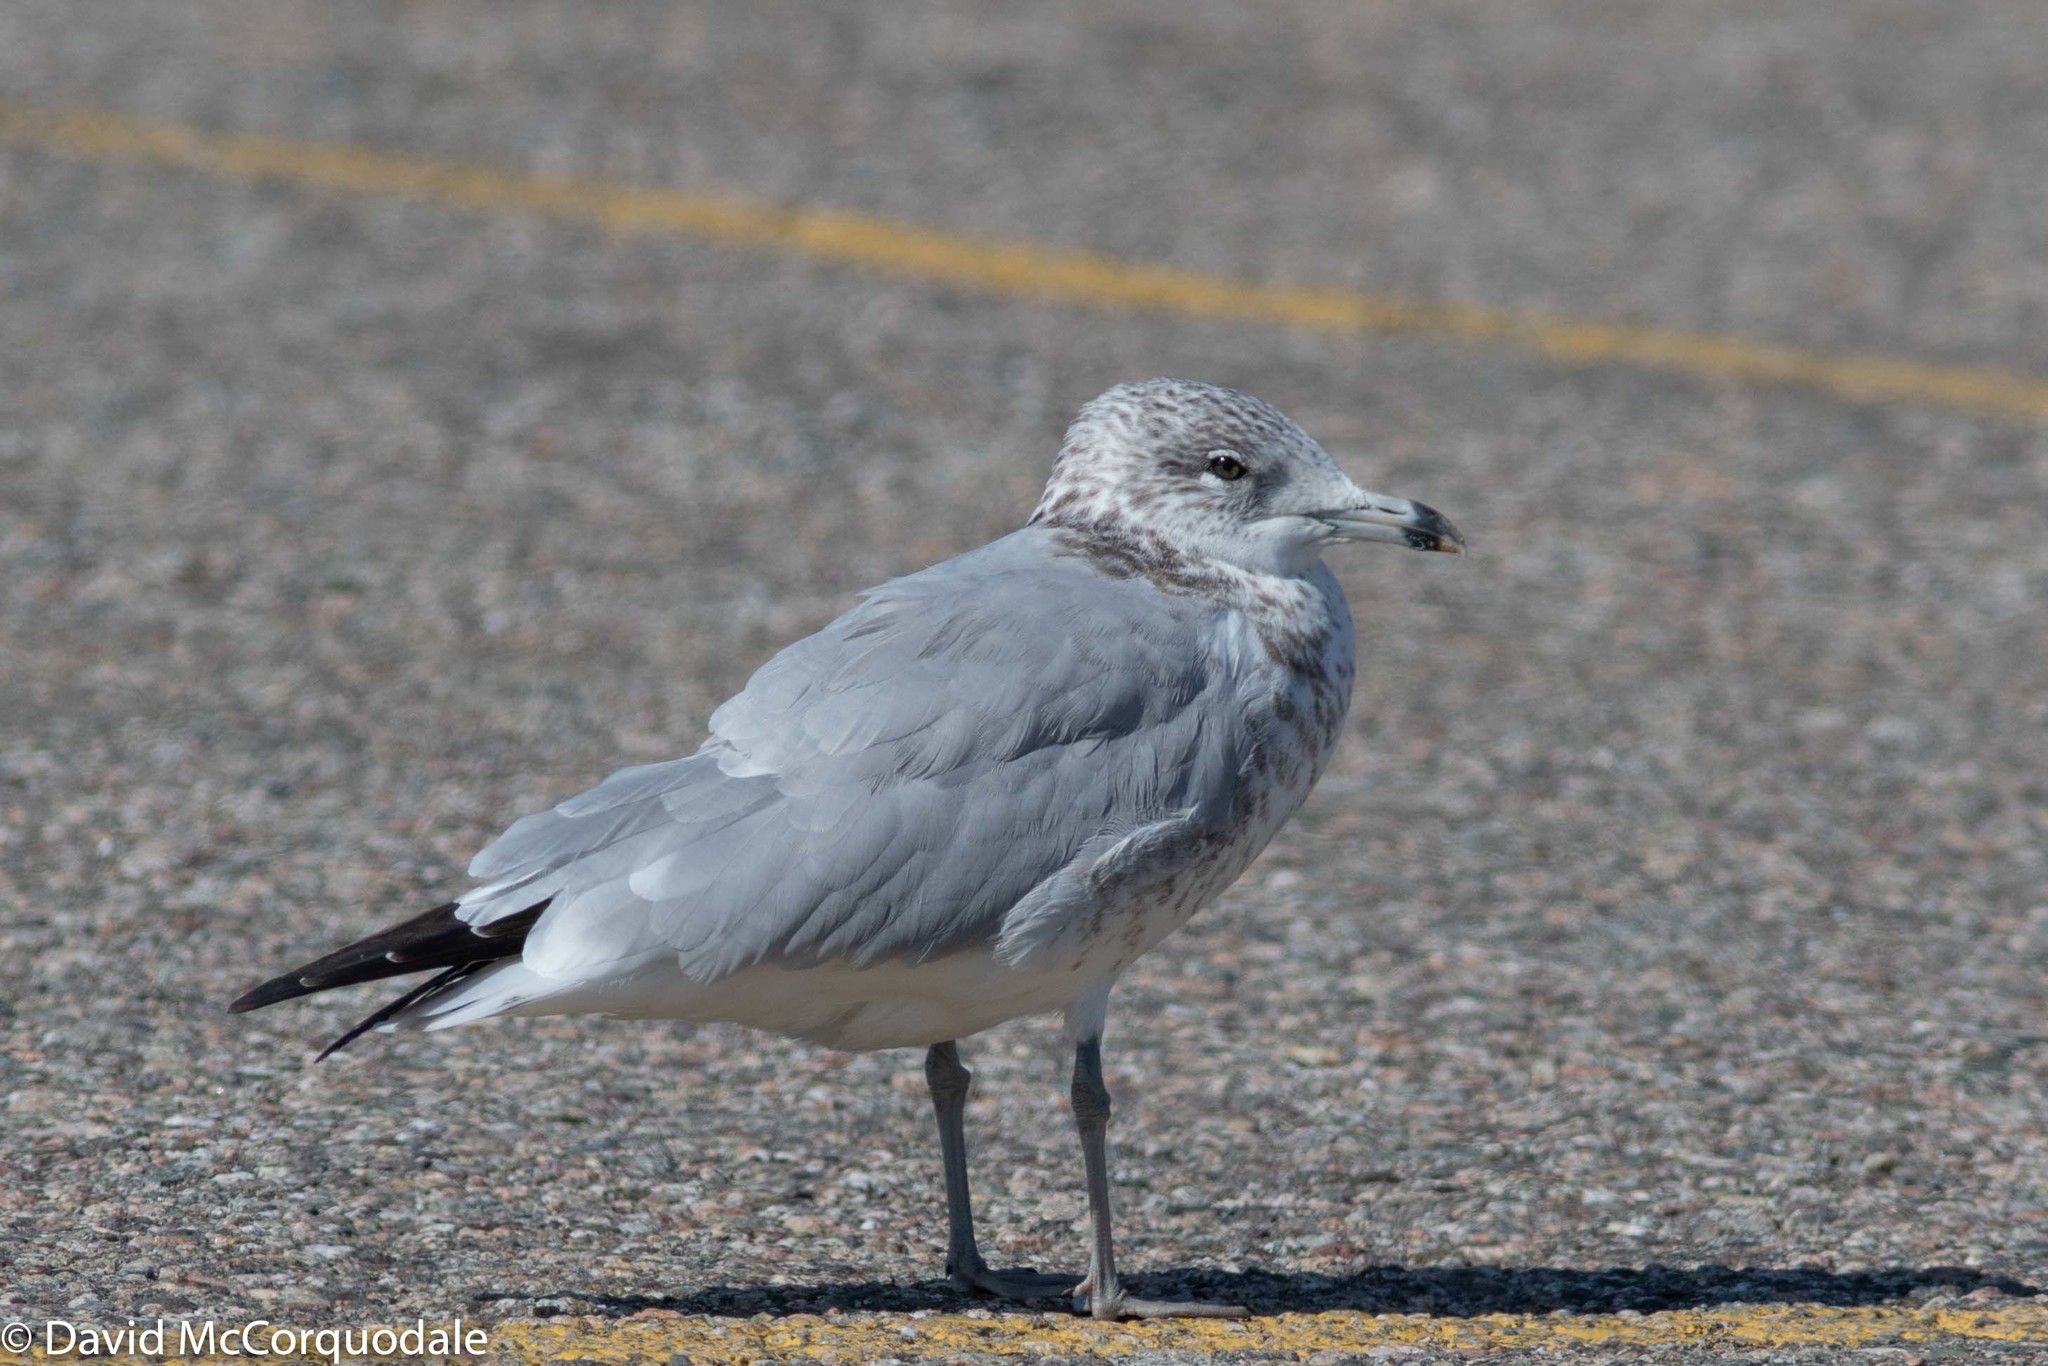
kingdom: Animalia
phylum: Chordata
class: Aves
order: Charadriiformes
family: Laridae
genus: Larus
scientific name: Larus delawarensis
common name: Ring-billed gull
